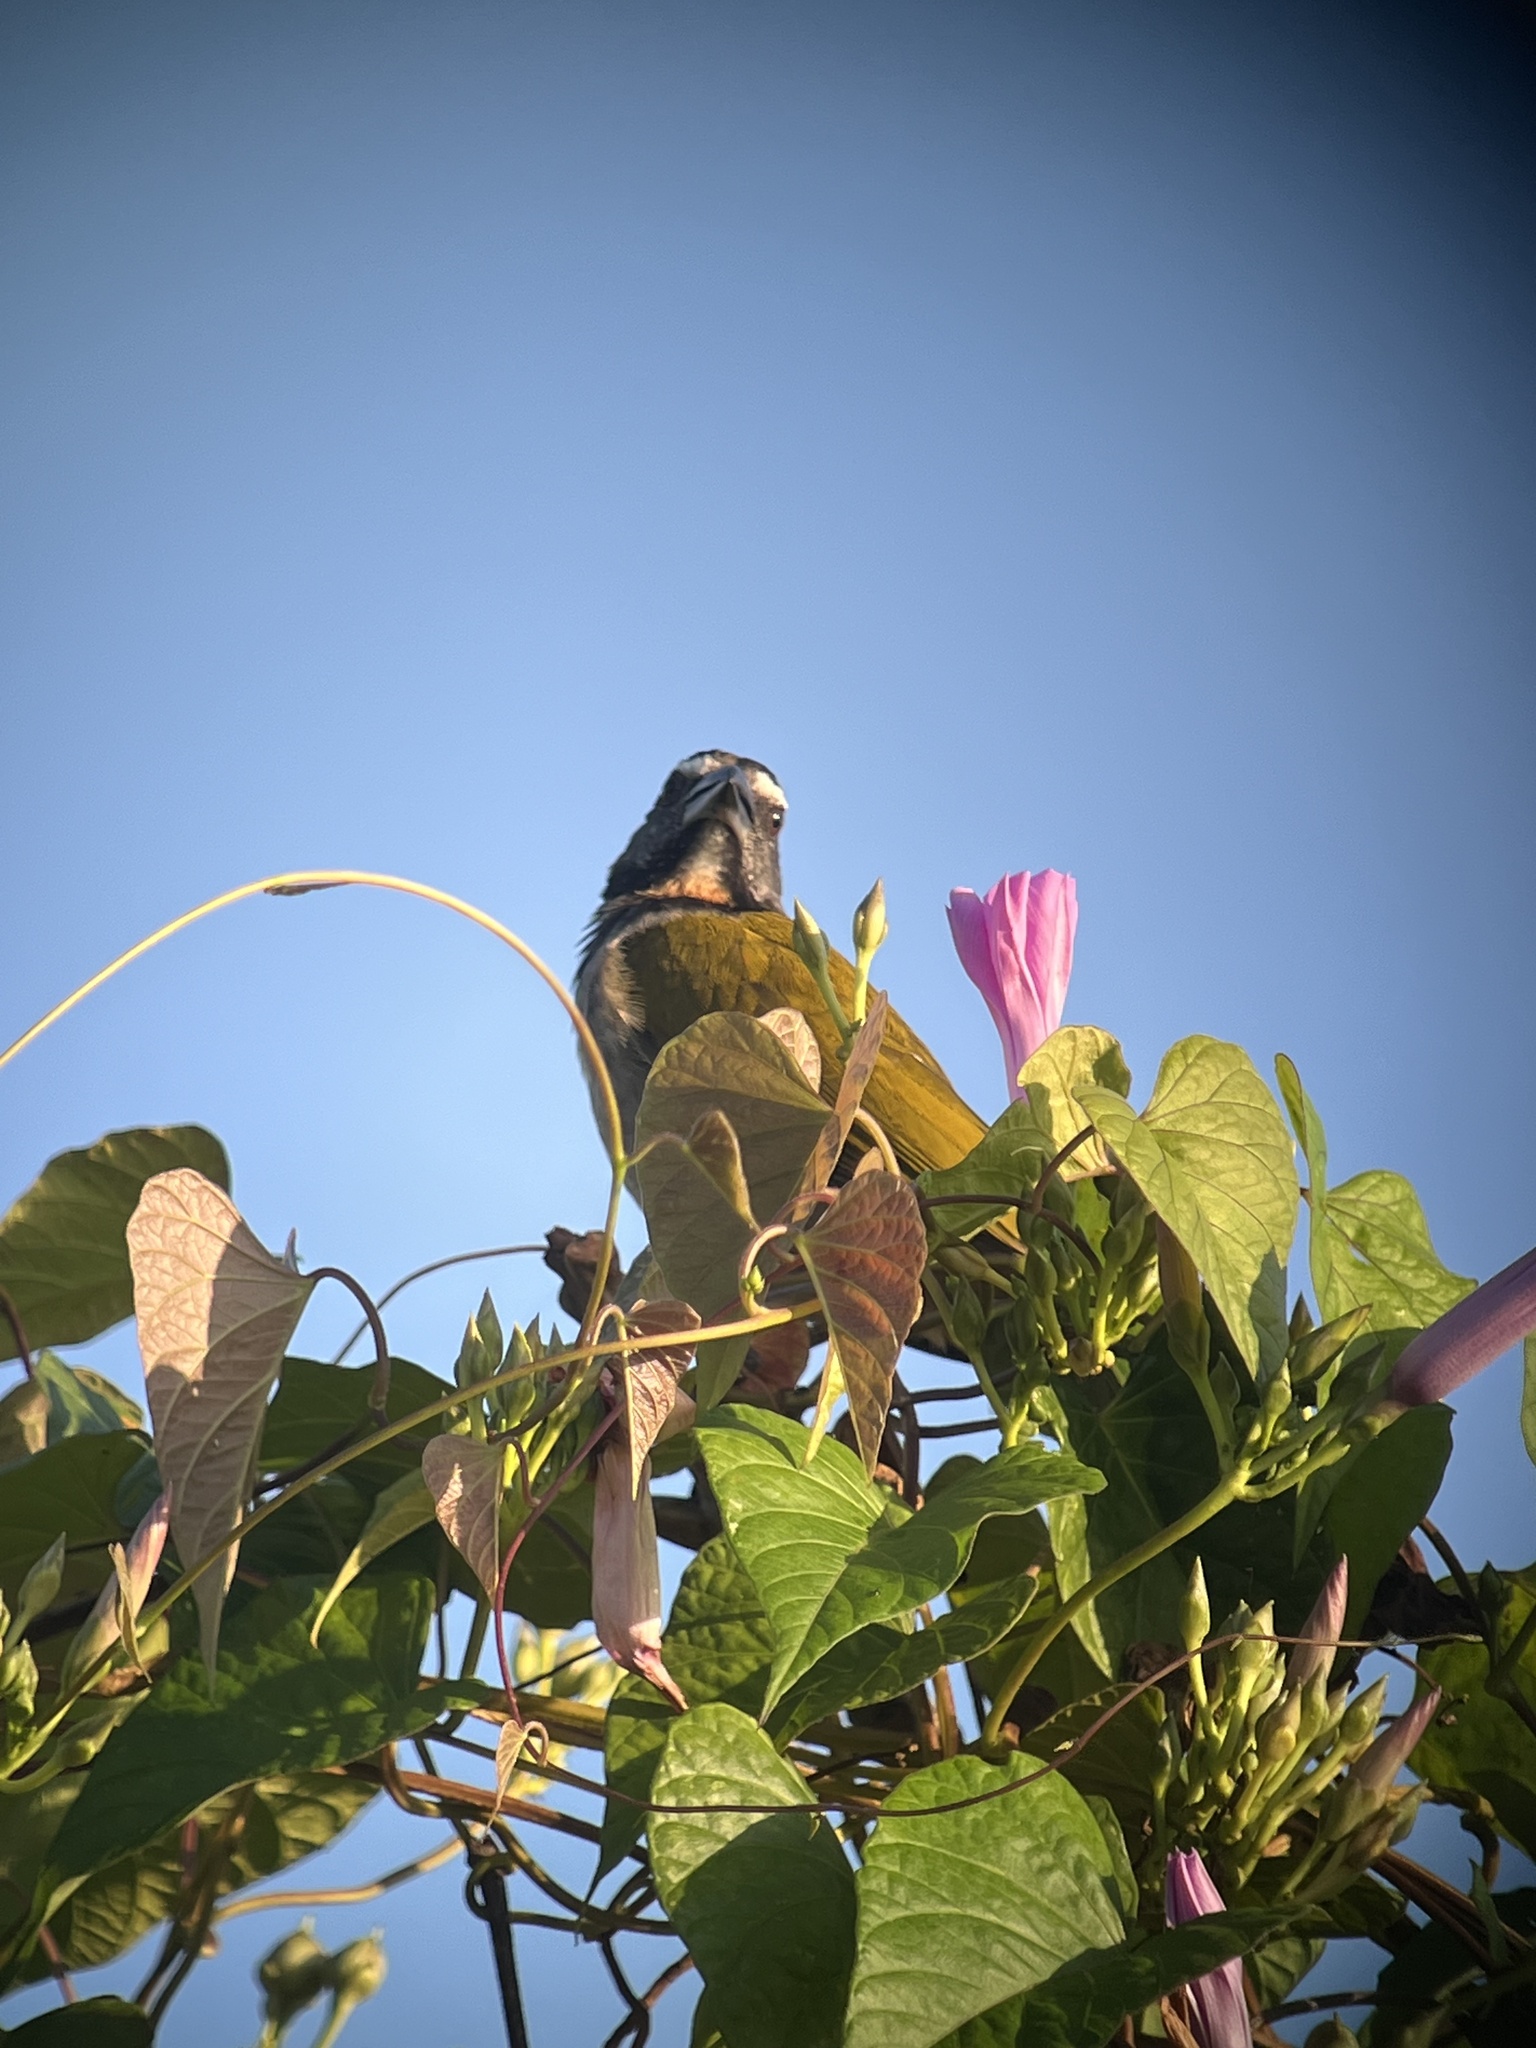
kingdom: Animalia
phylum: Chordata
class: Aves
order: Passeriformes
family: Thraupidae
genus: Saltator
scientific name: Saltator maximus
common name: Buff-throated saltator
